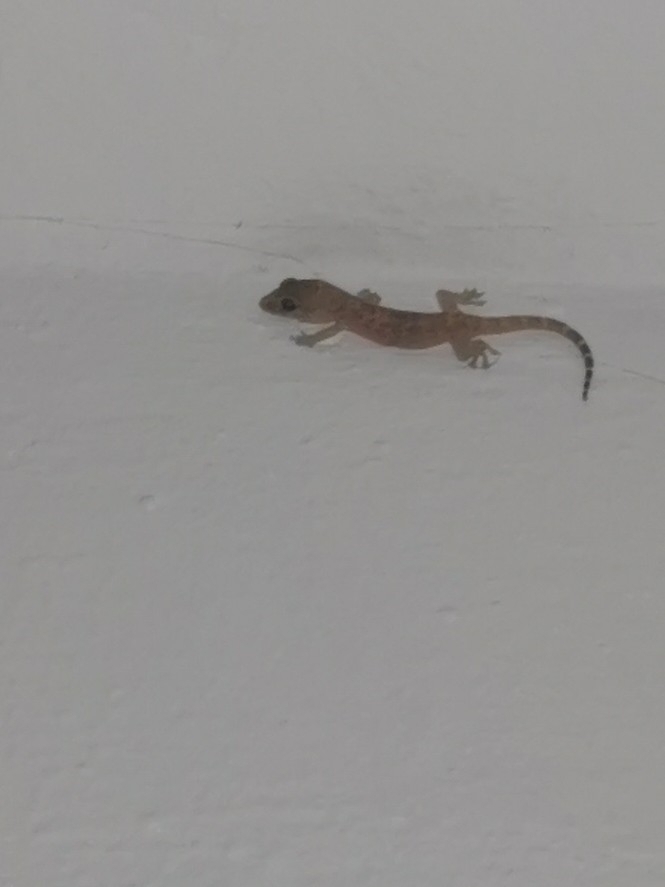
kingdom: Animalia
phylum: Chordata
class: Squamata
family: Gekkonidae
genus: Hemidactylus
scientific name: Hemidactylus turcicus
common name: Turkish gecko
